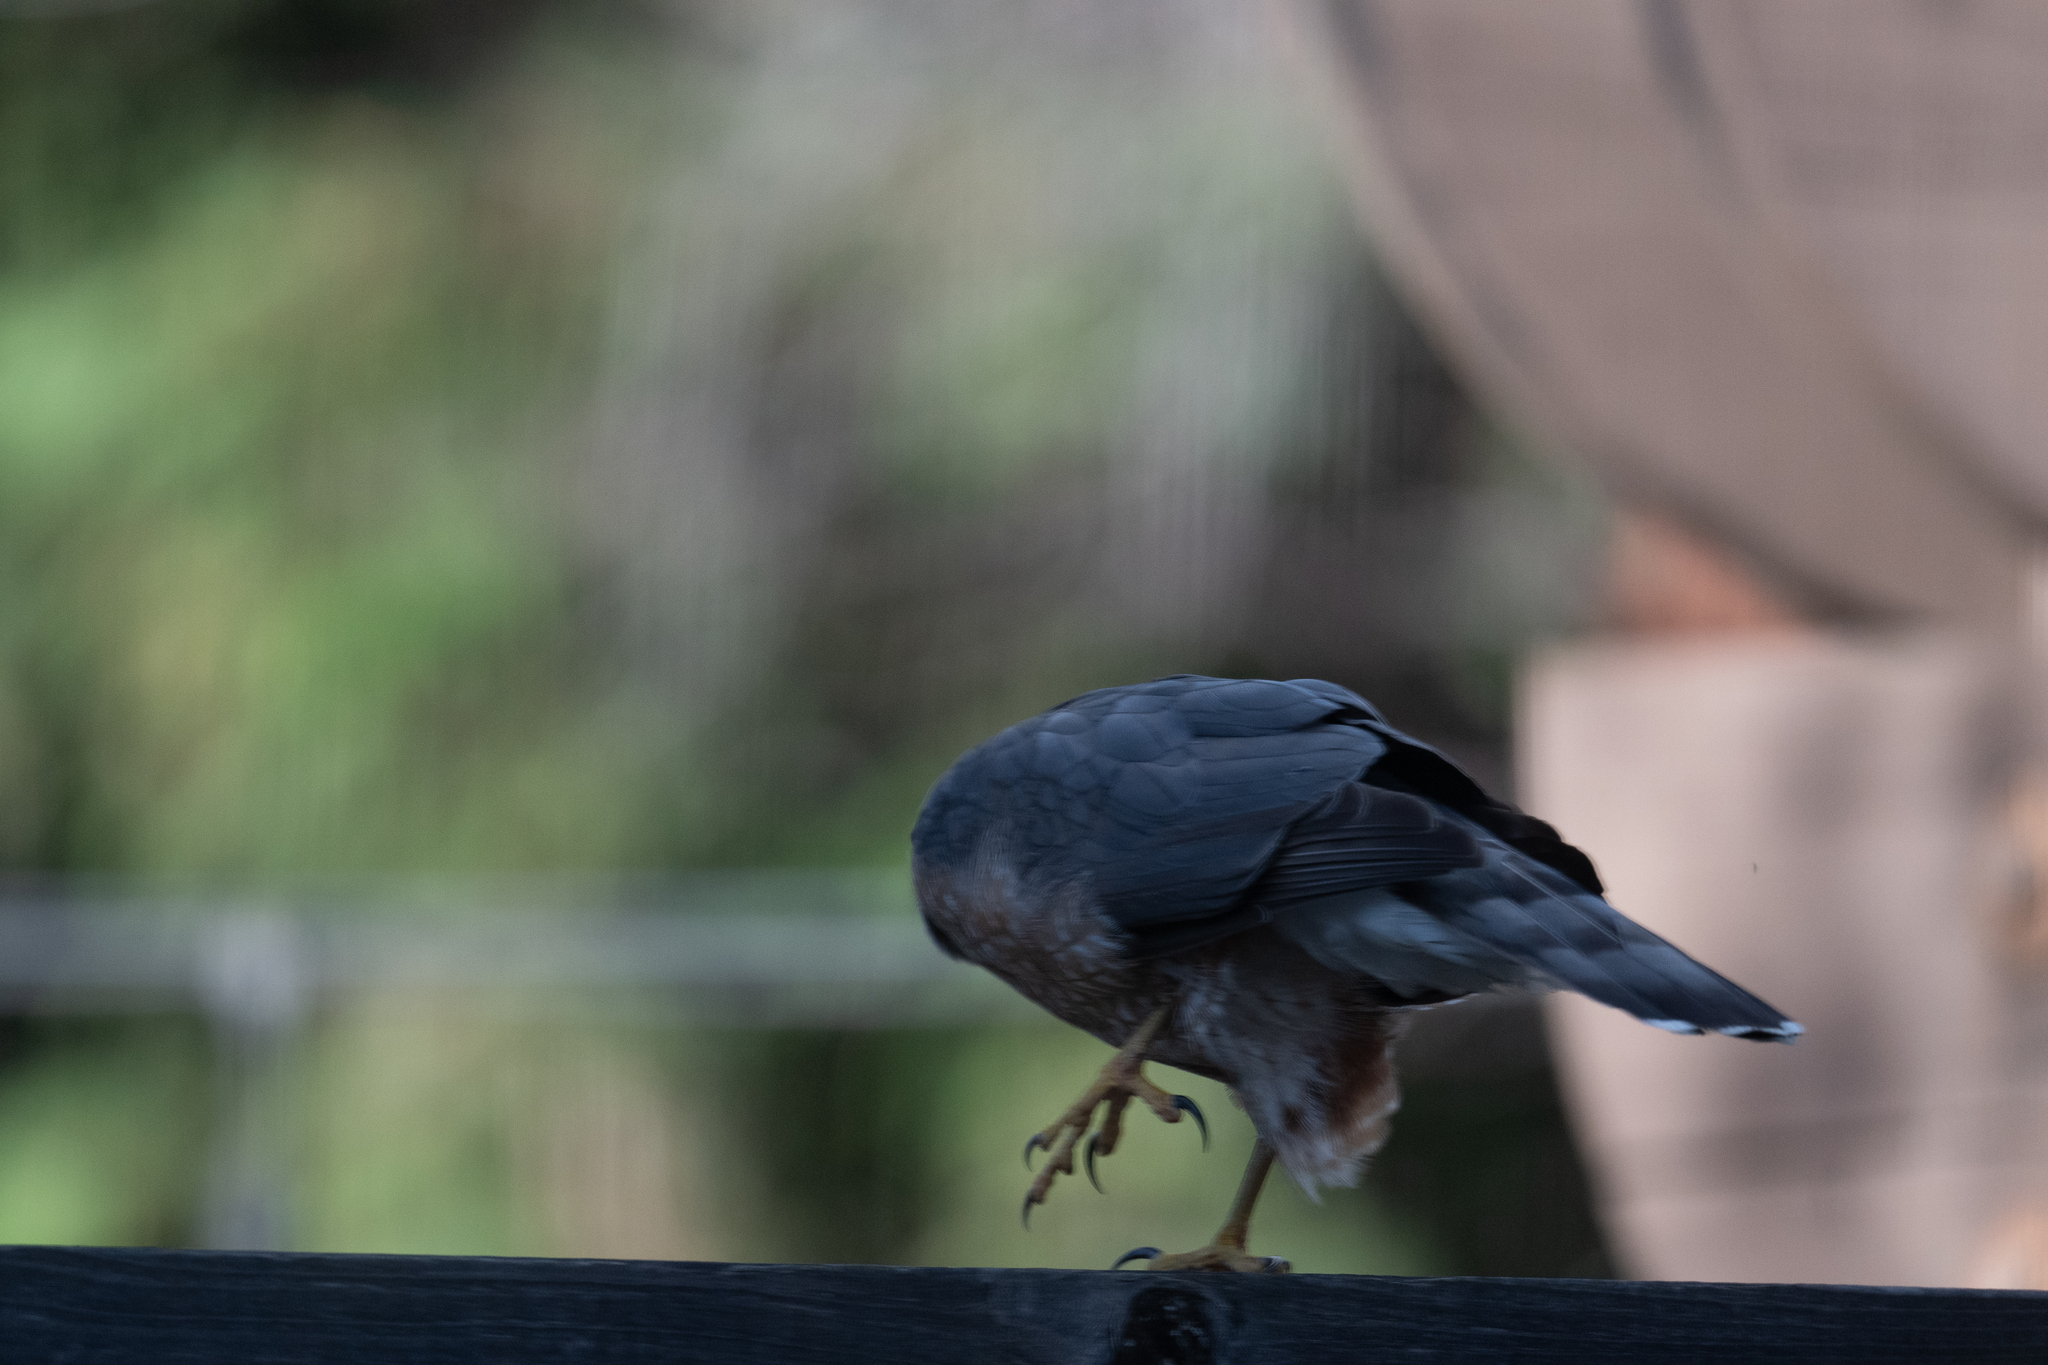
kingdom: Animalia
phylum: Chordata
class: Aves
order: Accipitriformes
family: Accipitridae
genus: Accipiter
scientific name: Accipiter cooperii
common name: Cooper's hawk
